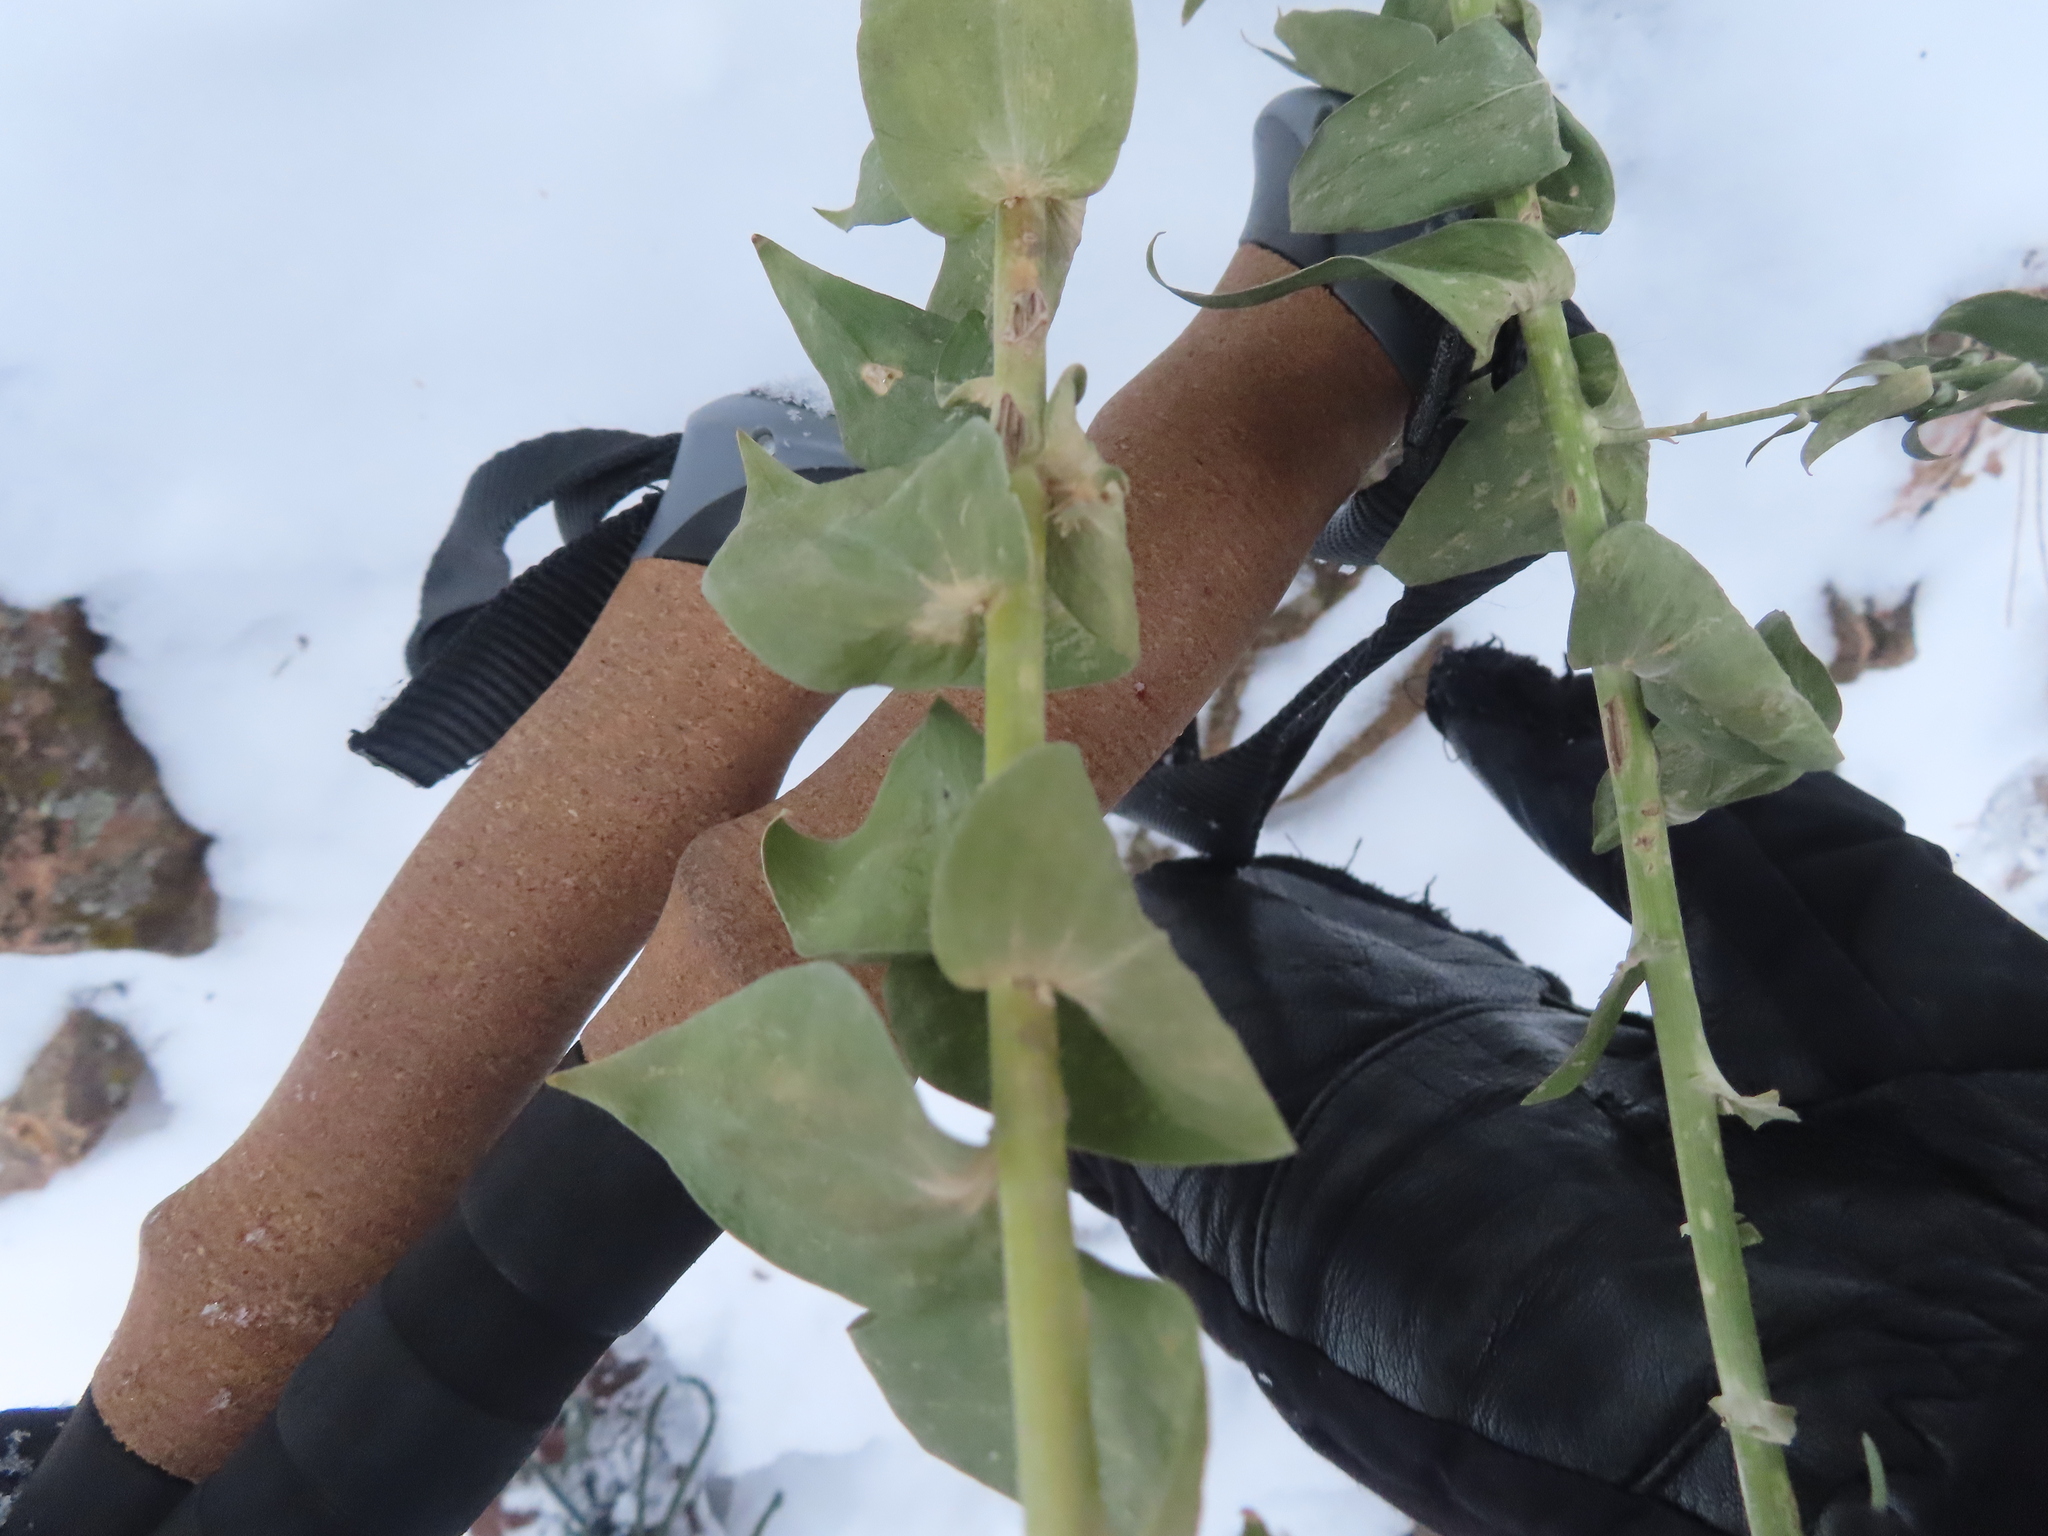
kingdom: Plantae
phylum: Tracheophyta
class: Magnoliopsida
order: Lamiales
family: Plantaginaceae
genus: Linaria
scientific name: Linaria dalmatica
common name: Dalmatian toadflax
